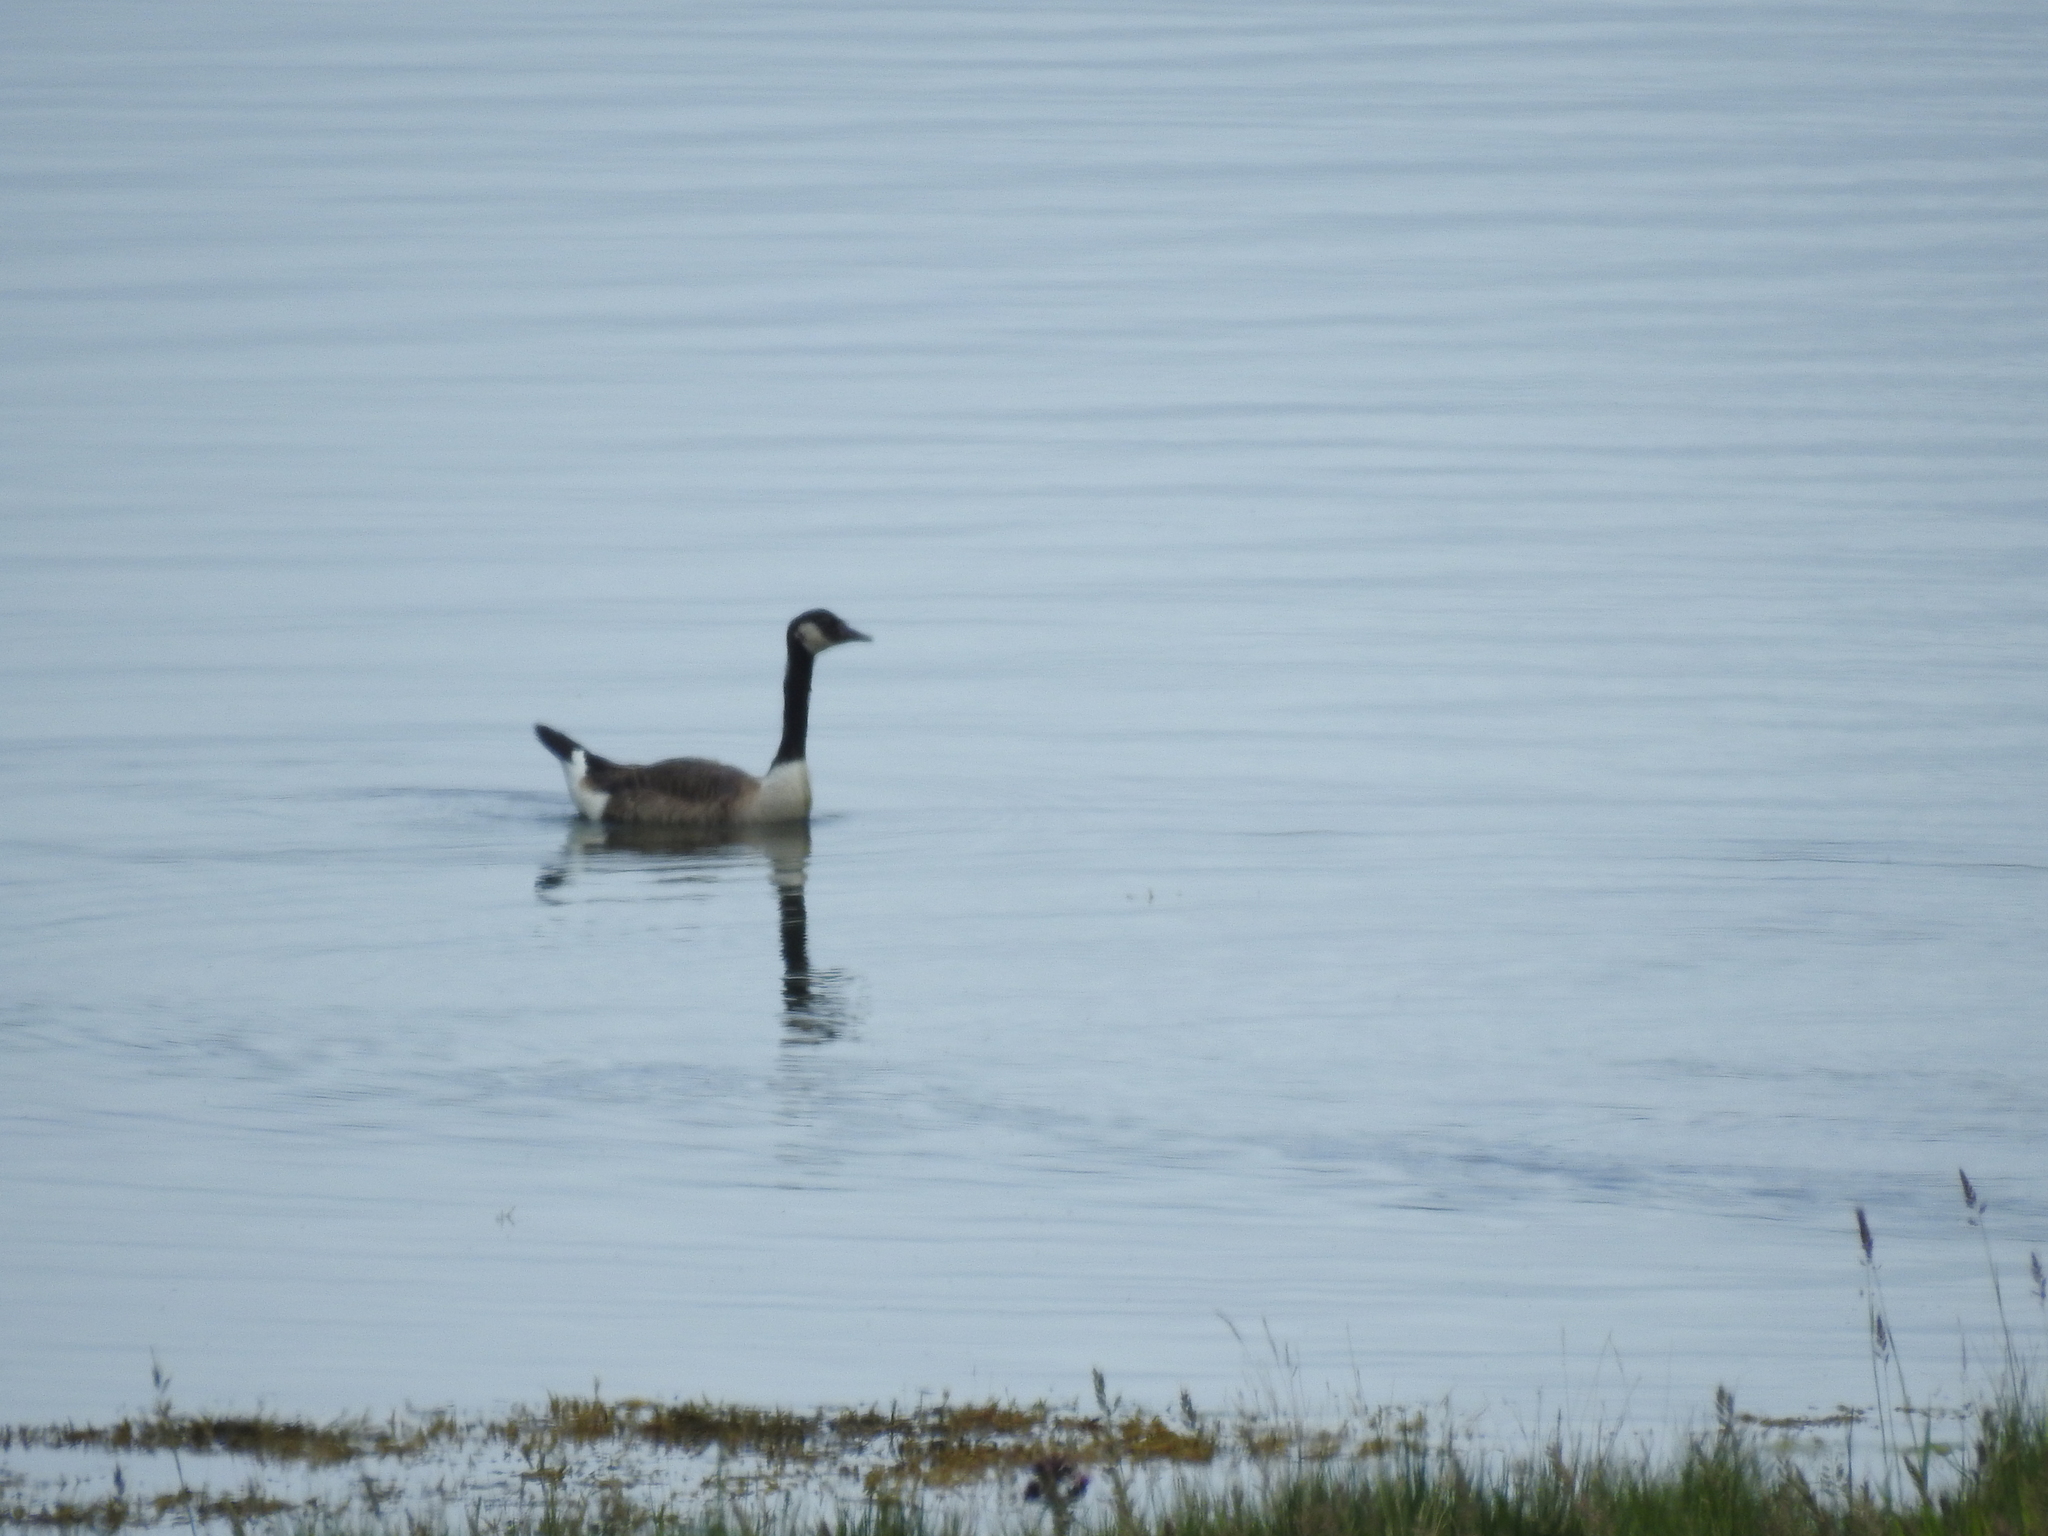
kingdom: Animalia
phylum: Chordata
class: Aves
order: Anseriformes
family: Anatidae
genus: Branta
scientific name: Branta canadensis
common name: Canada goose
